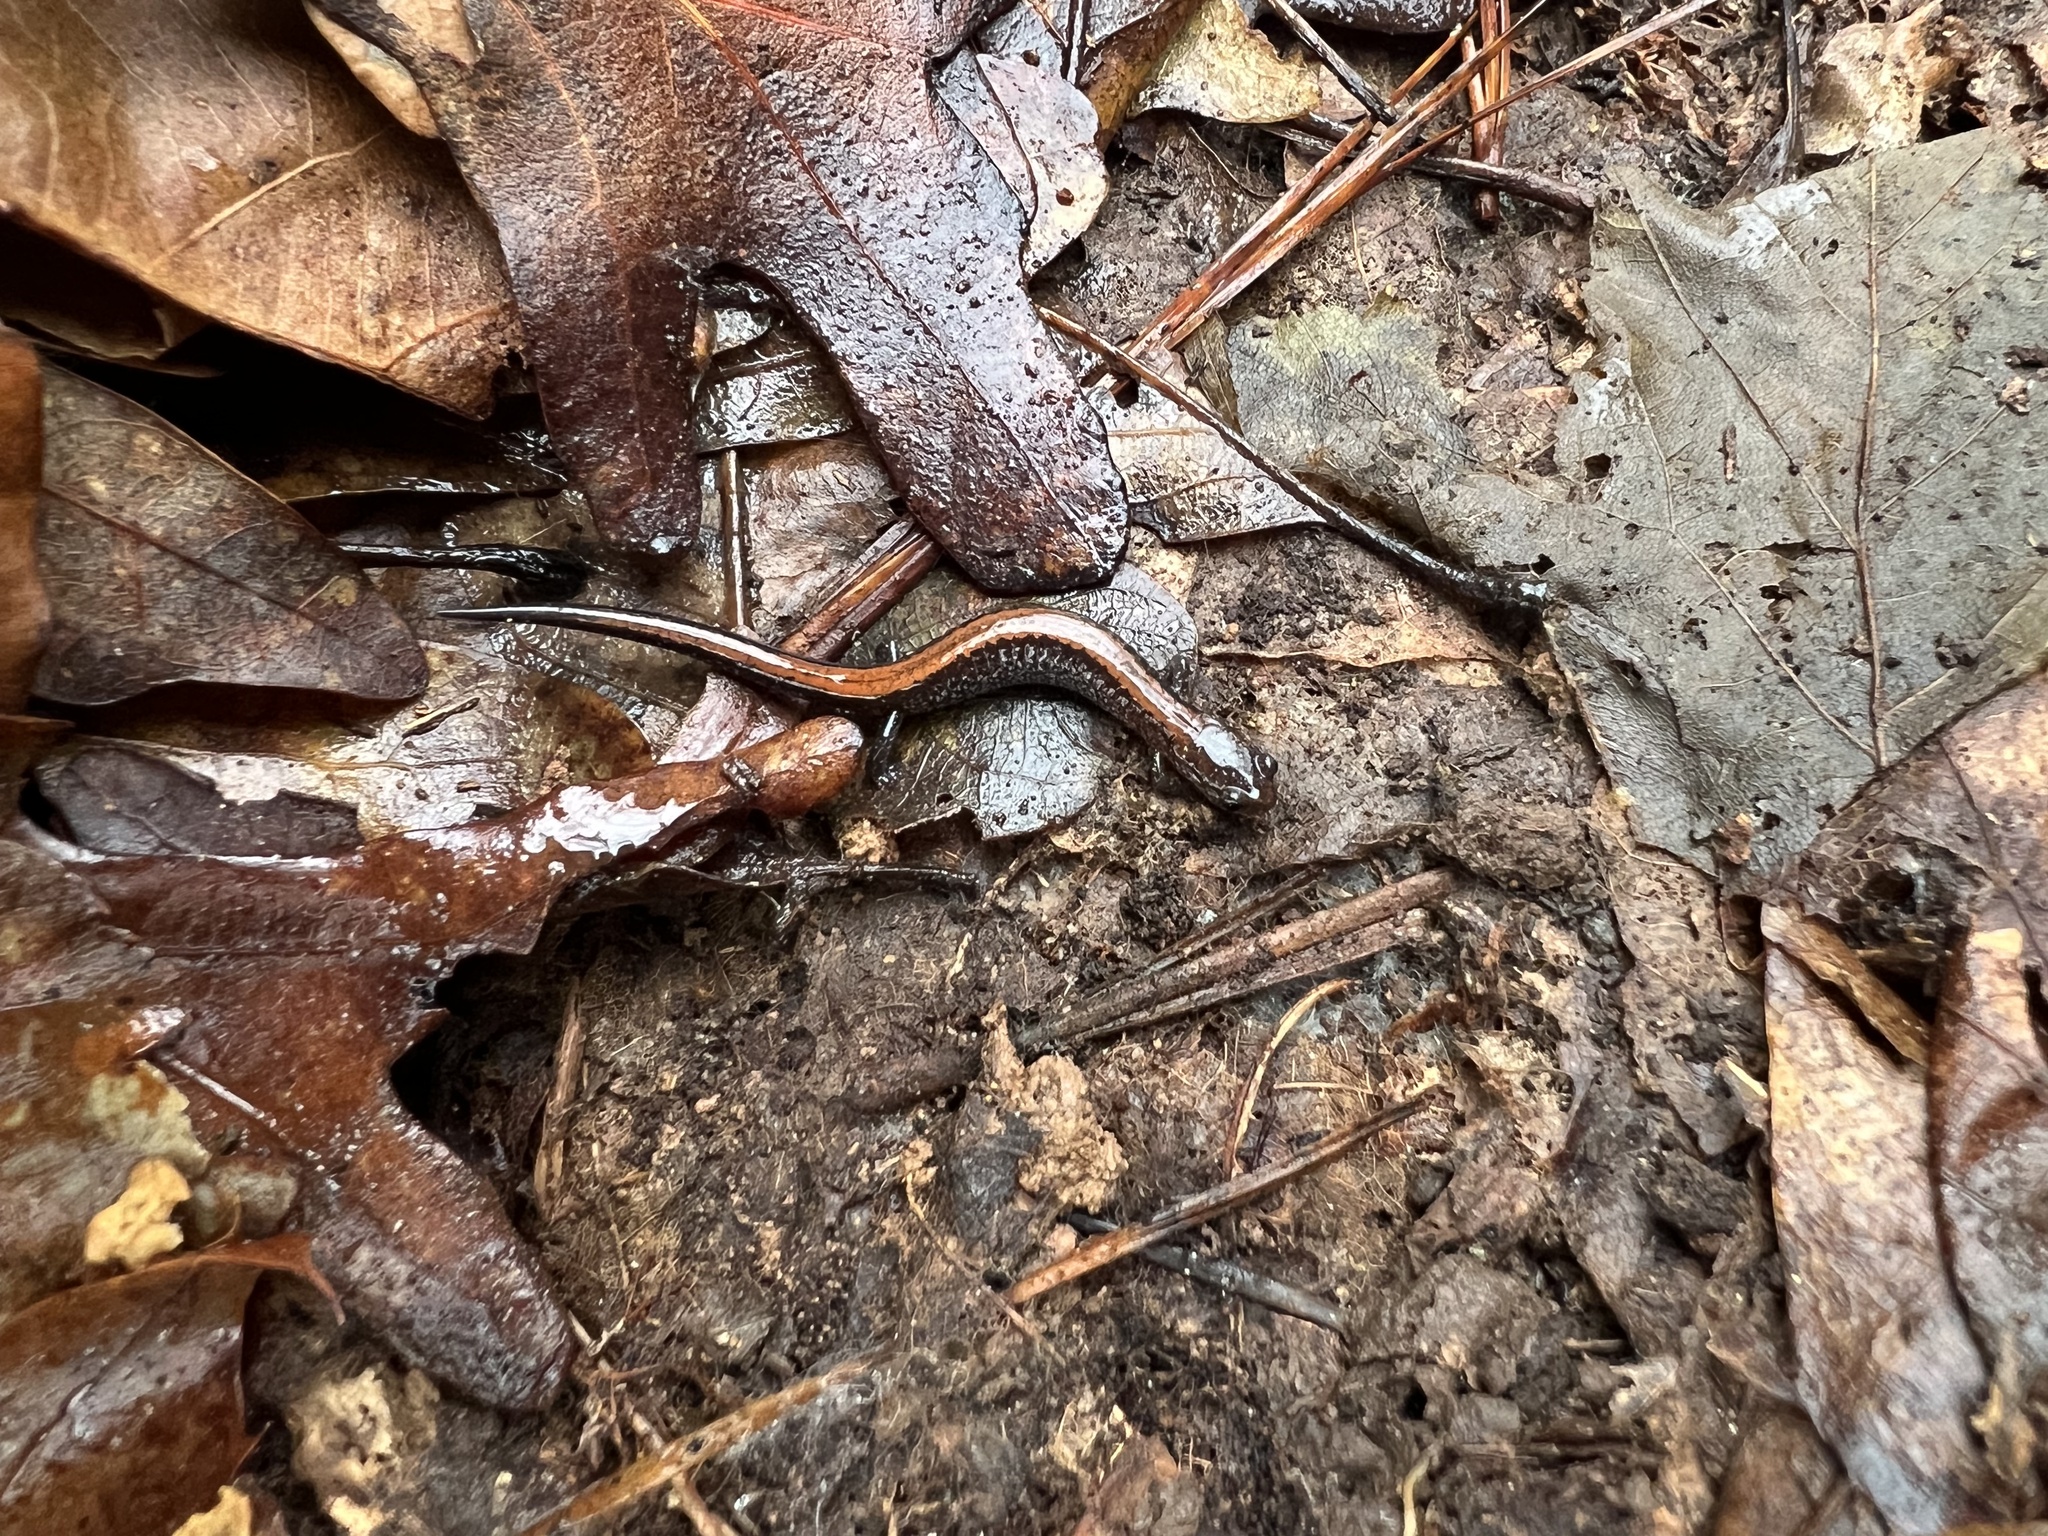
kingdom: Animalia
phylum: Chordata
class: Amphibia
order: Caudata
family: Plethodontidae
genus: Plethodon
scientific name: Plethodon cinereus
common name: Redback salamander
